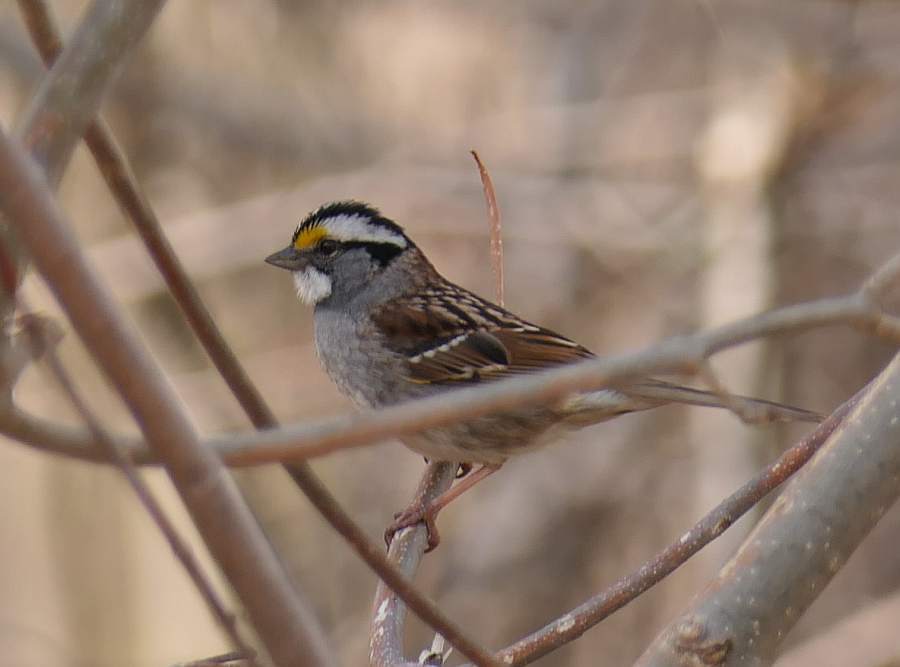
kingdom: Animalia
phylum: Chordata
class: Aves
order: Passeriformes
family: Passerellidae
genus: Zonotrichia
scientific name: Zonotrichia albicollis
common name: White-throated sparrow
